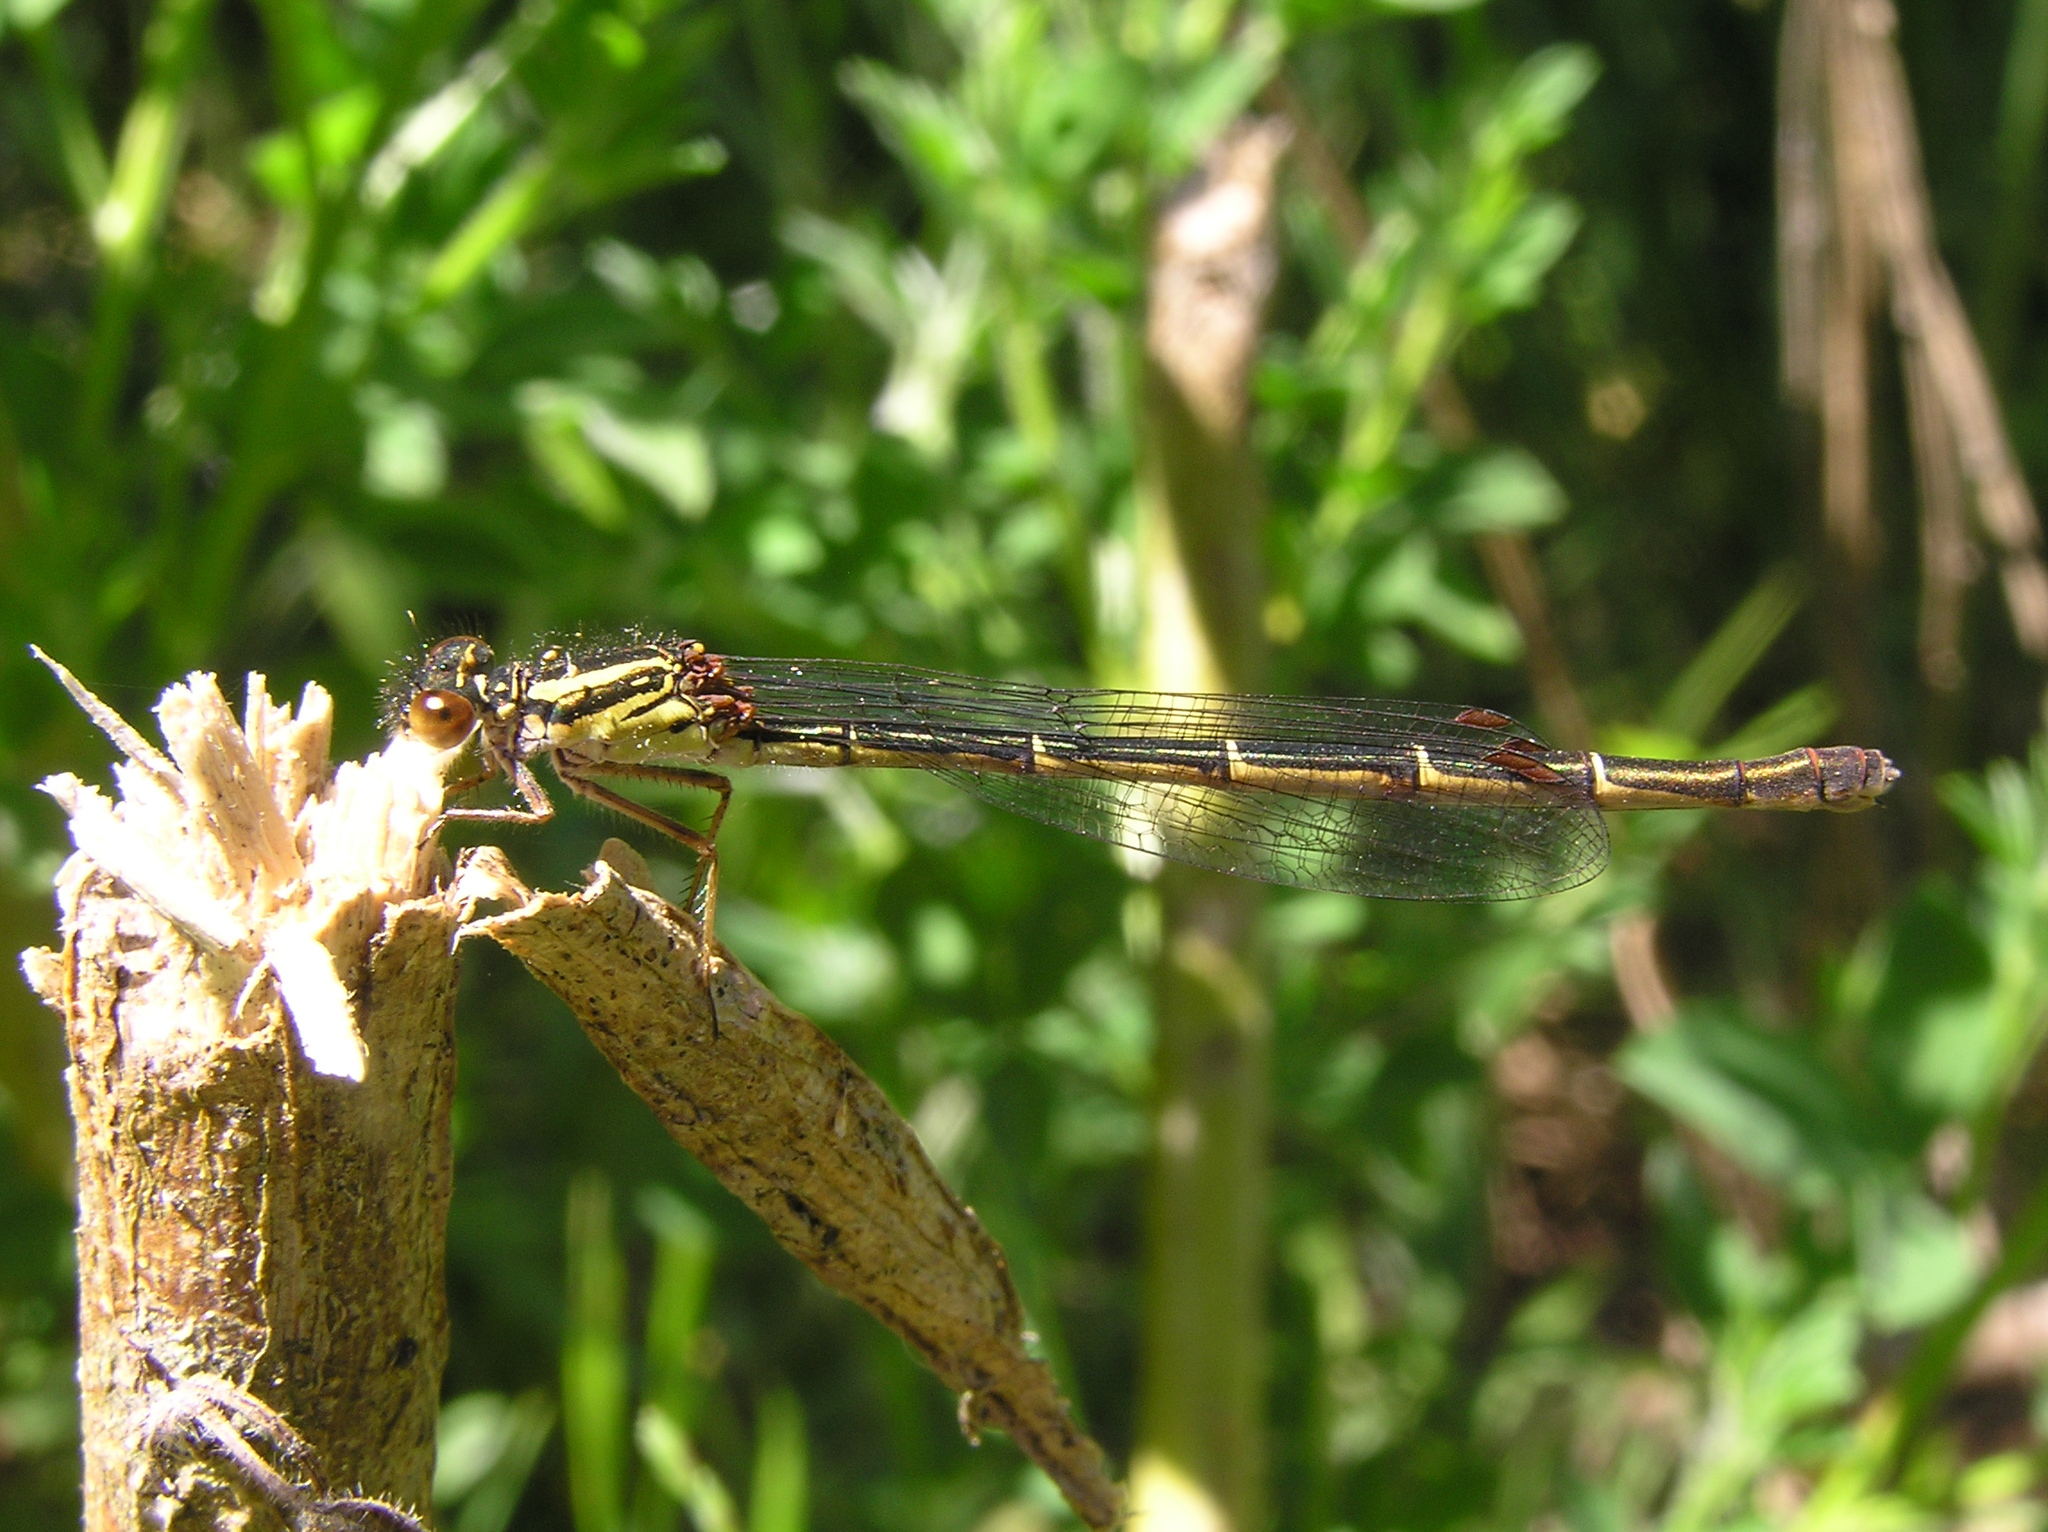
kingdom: Animalia
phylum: Arthropoda
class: Insecta
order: Odonata
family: Coenagrionidae
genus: Xanthocnemis
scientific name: Xanthocnemis zealandica
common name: Common redcoat damselfly
